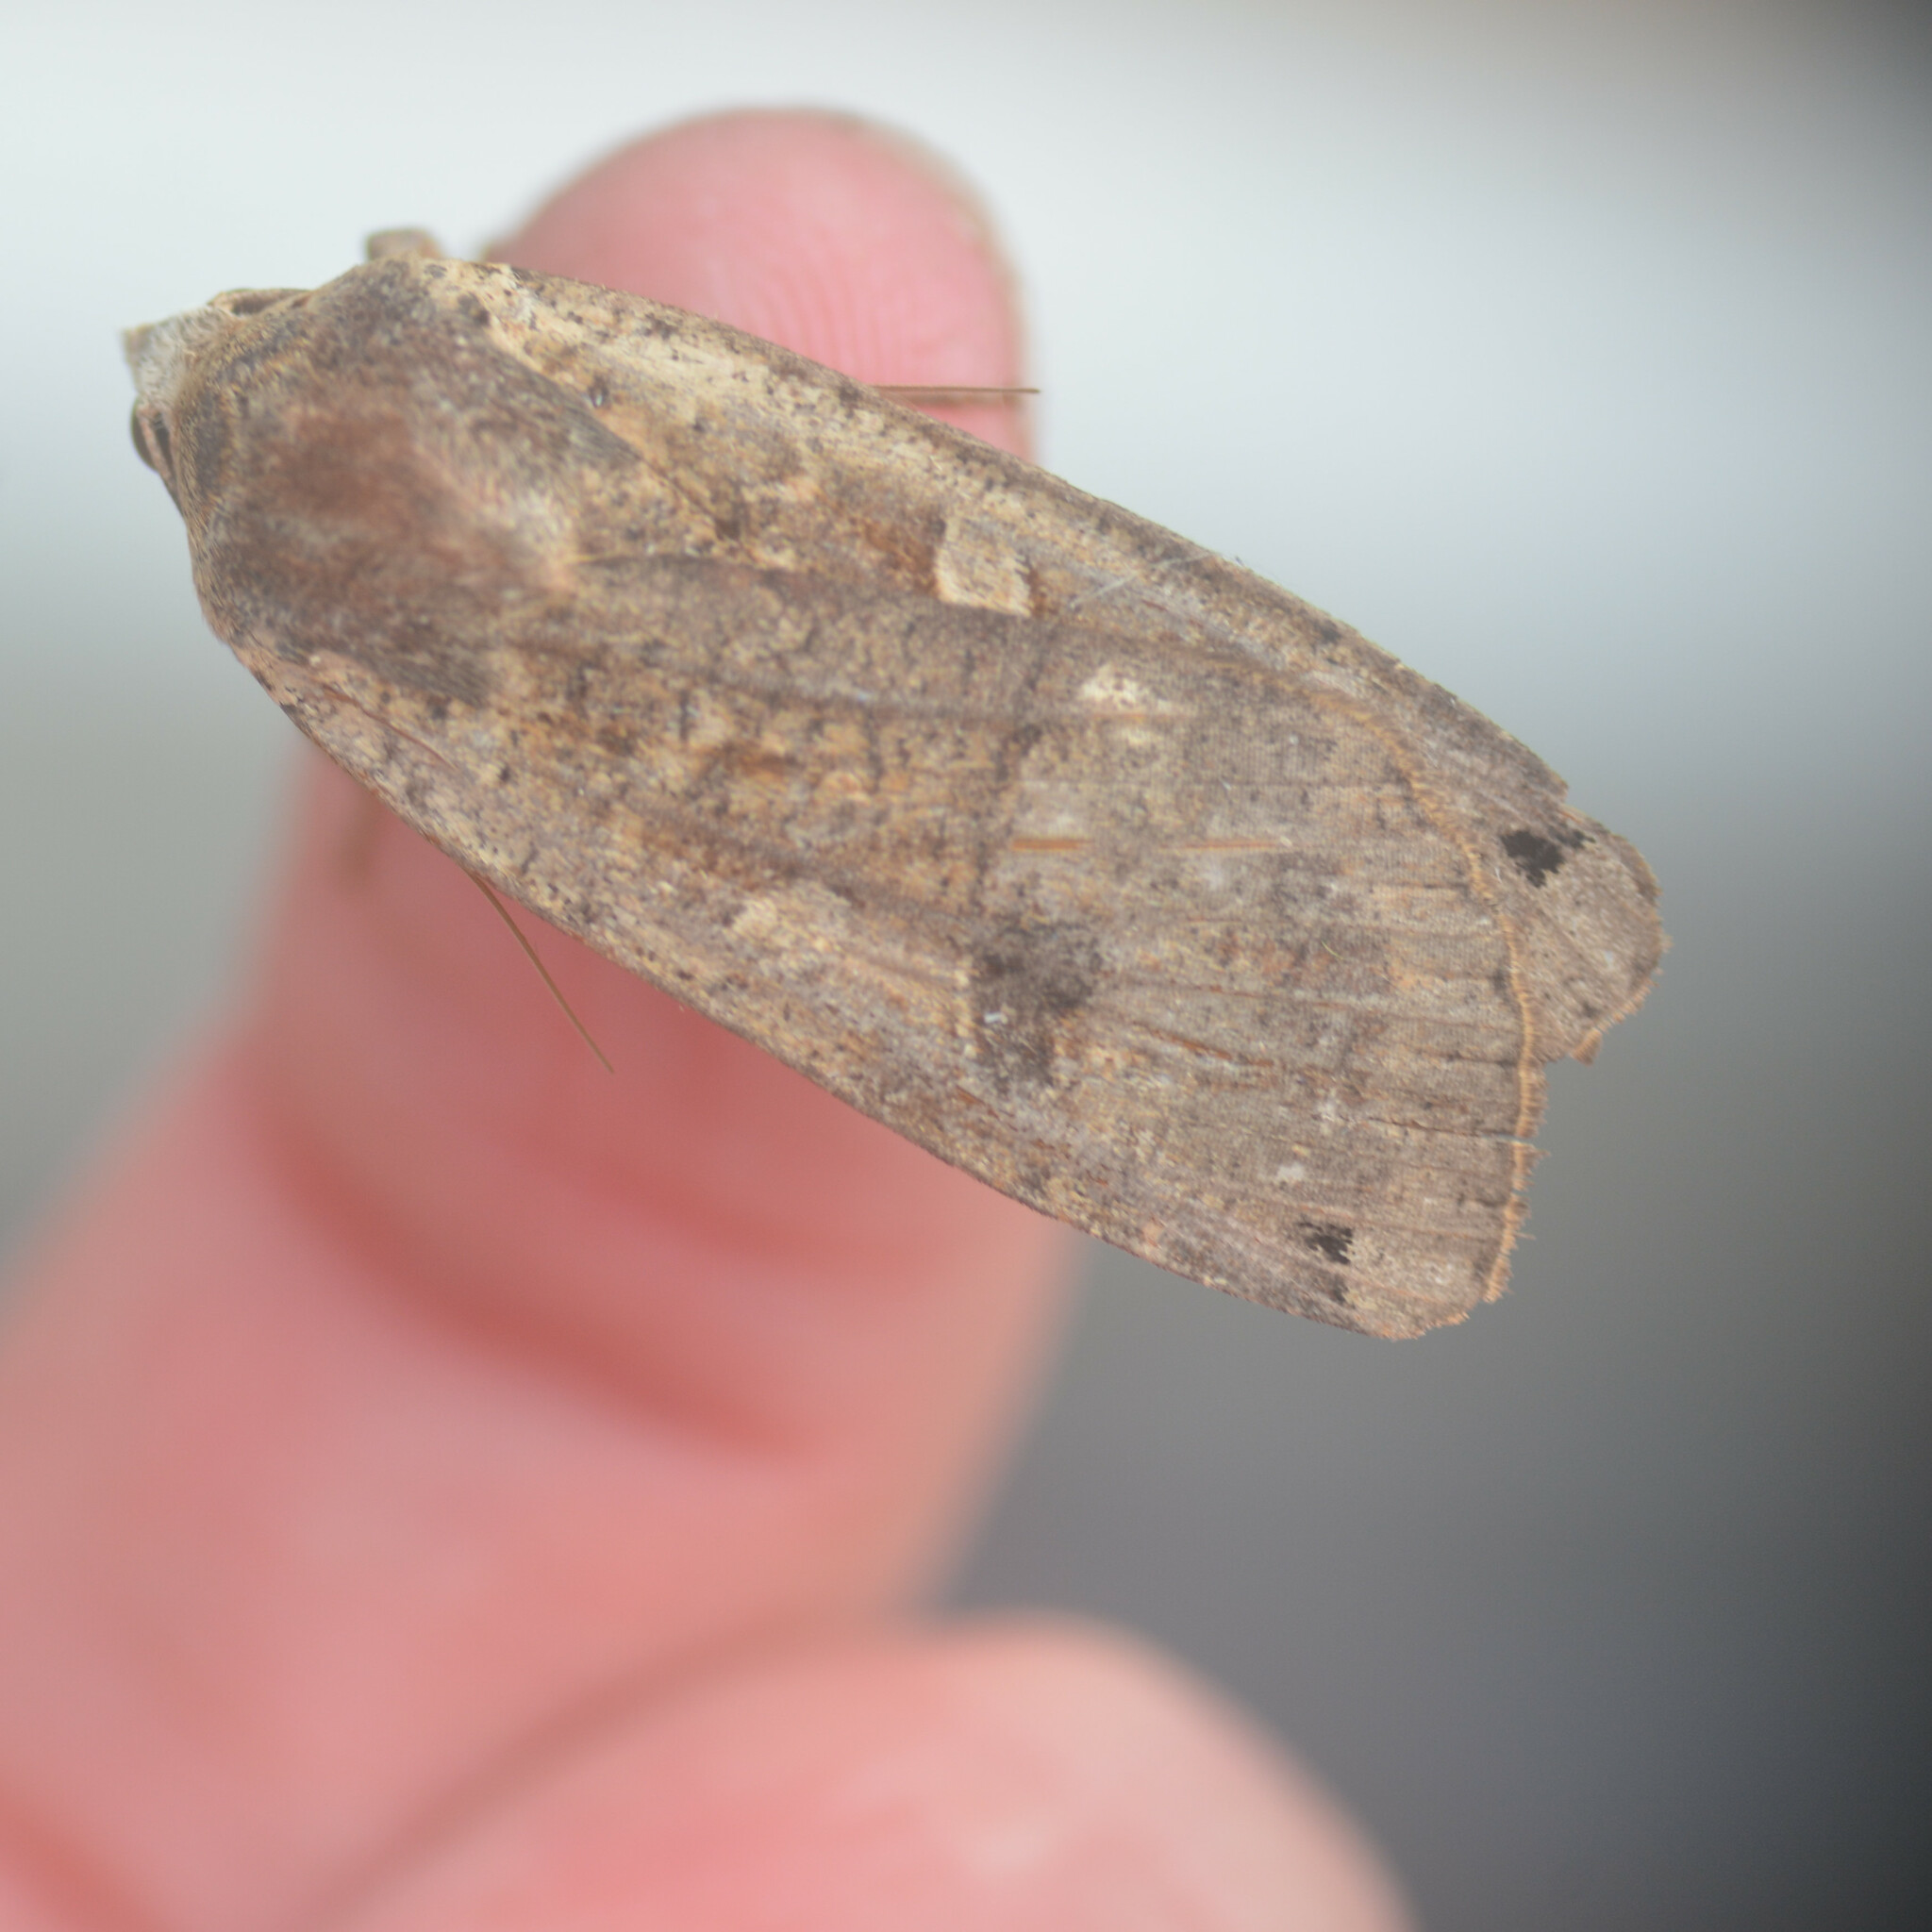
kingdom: Animalia
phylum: Arthropoda
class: Insecta
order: Lepidoptera
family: Noctuidae
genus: Noctua
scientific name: Noctua pronuba
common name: Large yellow underwing
